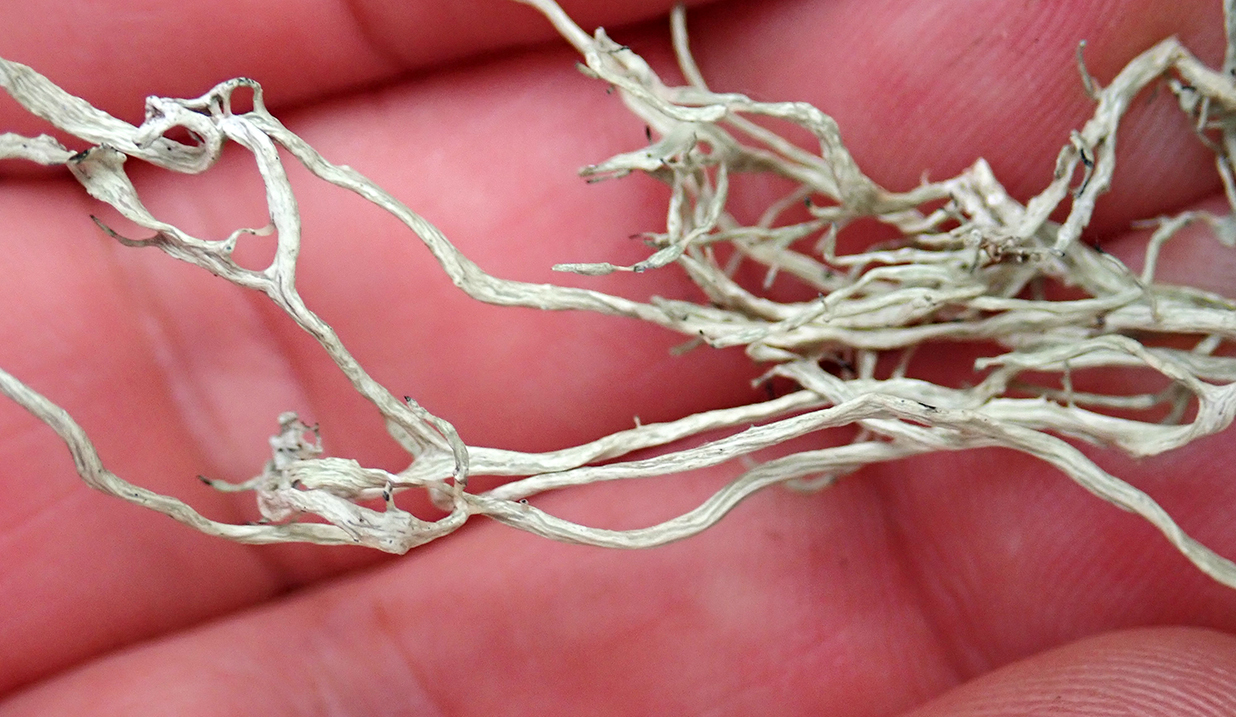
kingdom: Fungi
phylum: Ascomycota
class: Lecanoromycetes
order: Lecanorales
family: Ramalinaceae
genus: Ramalina
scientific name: Ramalina meridionalis
